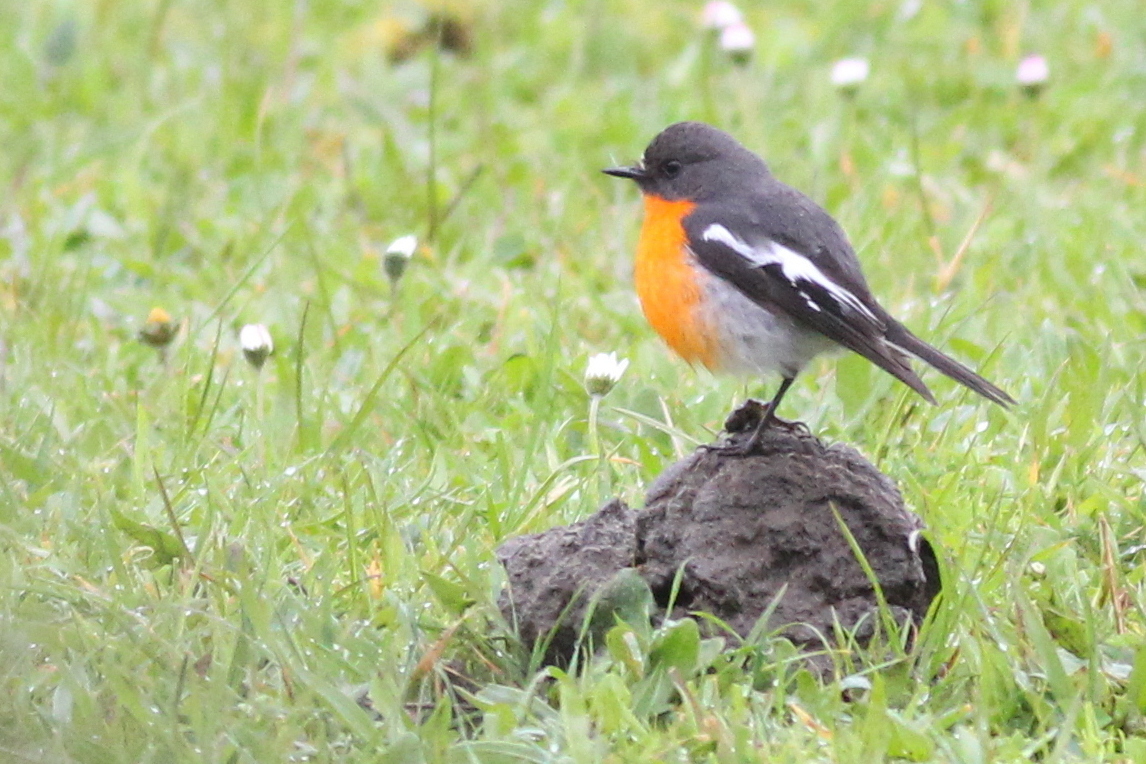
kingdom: Animalia
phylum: Chordata
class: Aves
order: Passeriformes
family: Petroicidae
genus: Petroica
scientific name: Petroica phoenicea
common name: Flame robin
